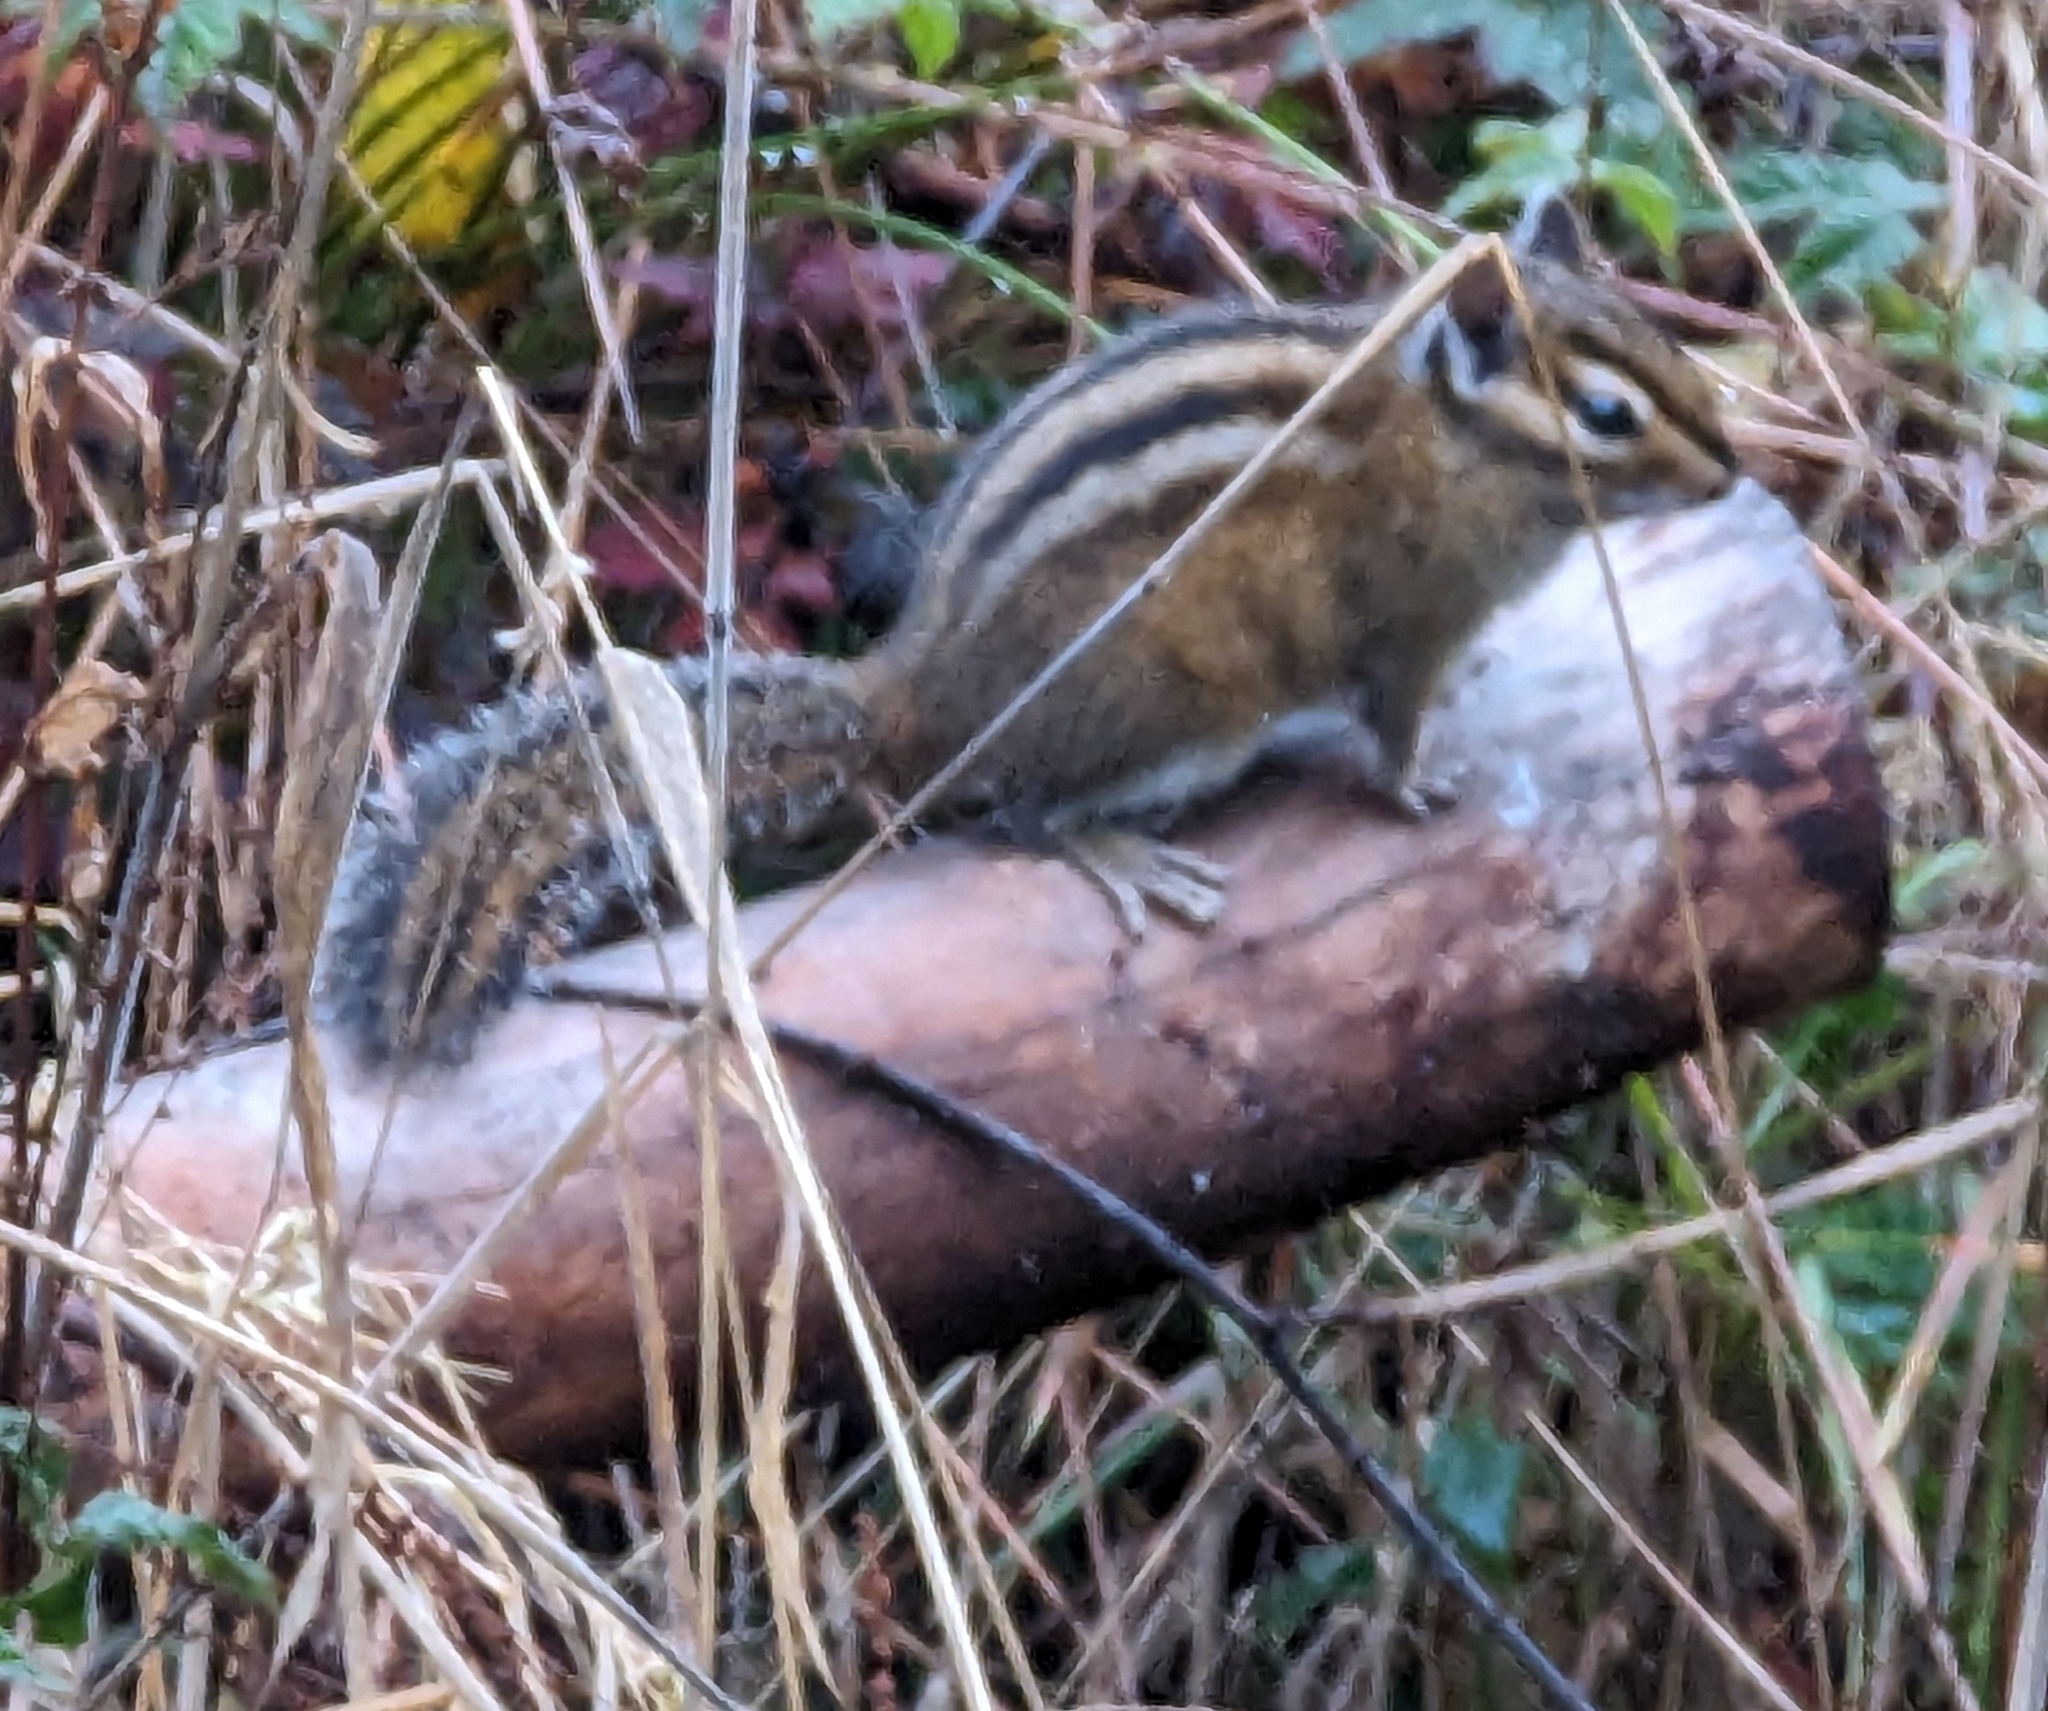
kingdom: Animalia
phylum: Chordata
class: Mammalia
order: Rodentia
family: Sciuridae
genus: Tamias
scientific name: Tamias townsendii
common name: Townsend's chipmunk
